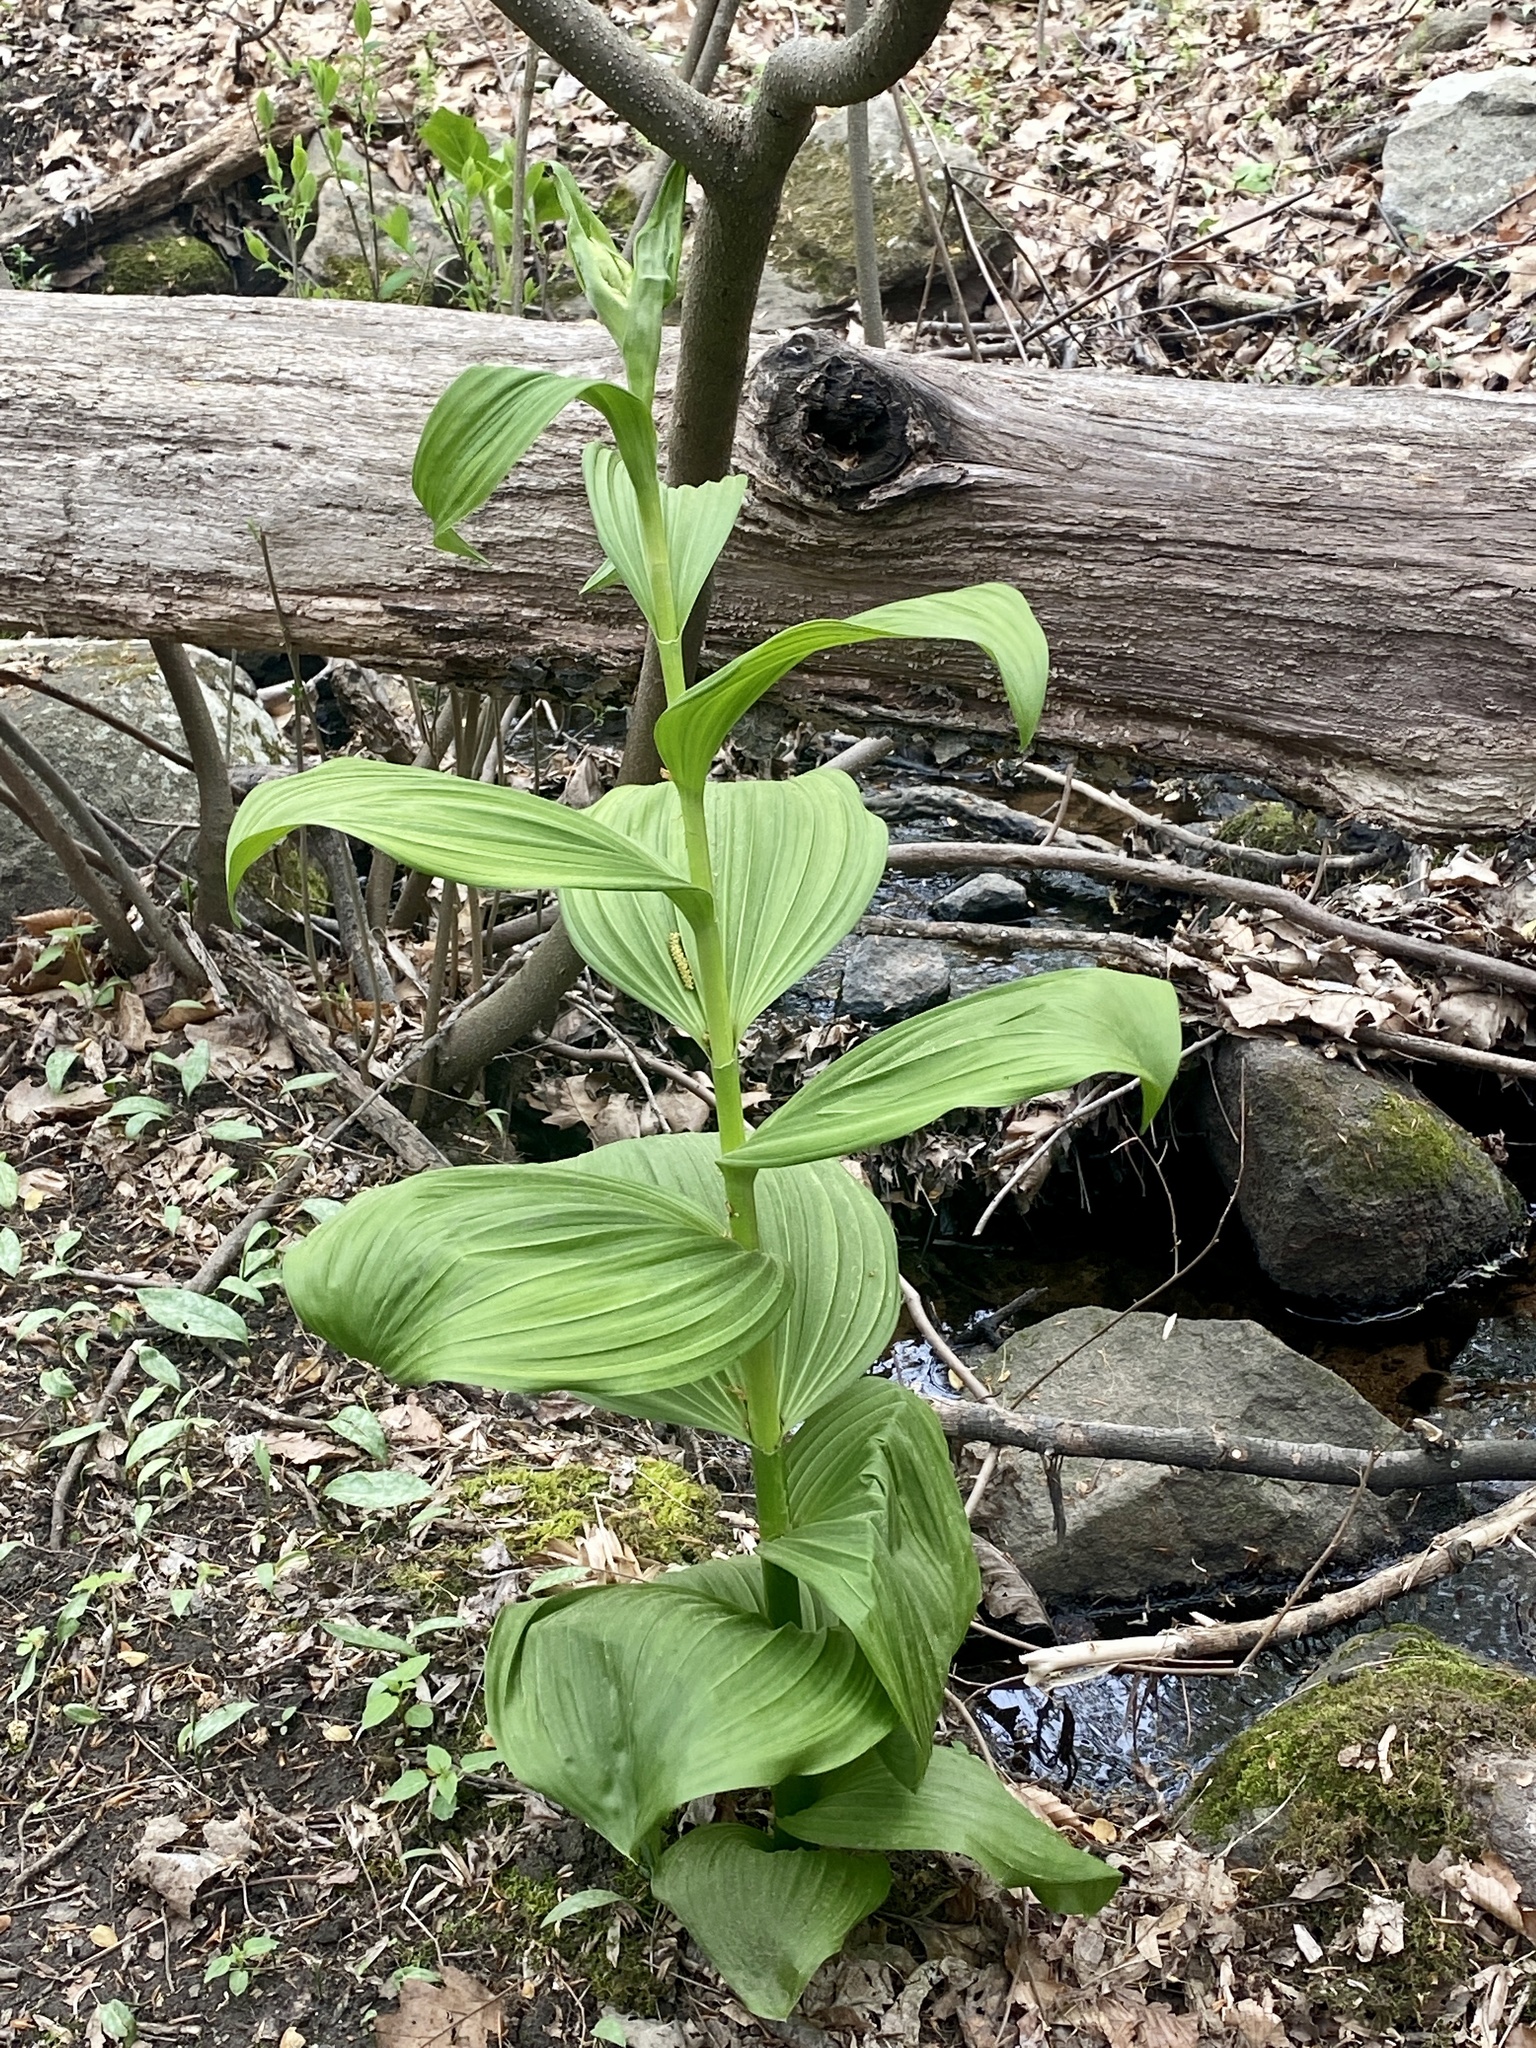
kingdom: Plantae
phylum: Tracheophyta
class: Liliopsida
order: Liliales
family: Melanthiaceae
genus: Veratrum
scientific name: Veratrum viride
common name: American false hellebore
